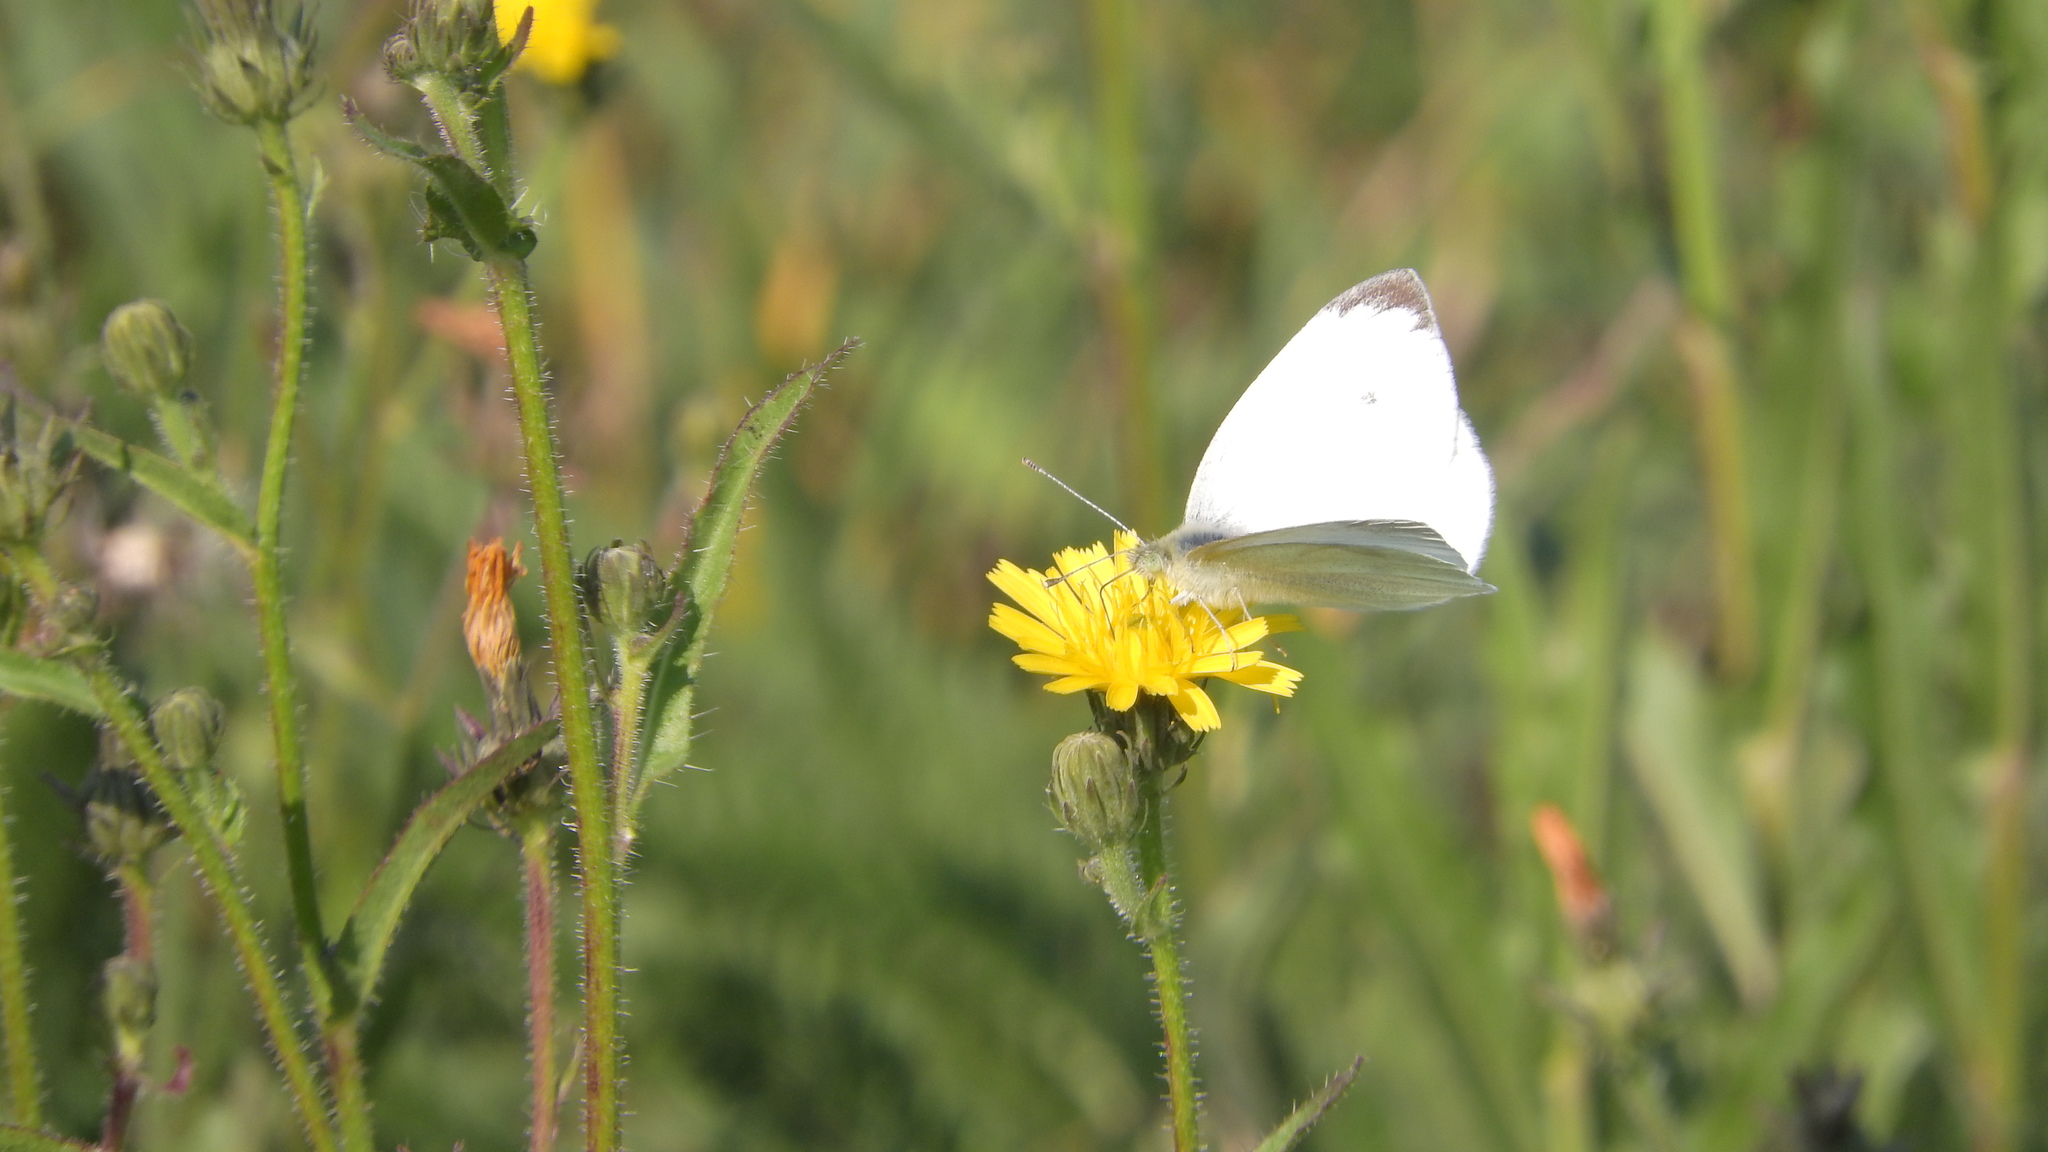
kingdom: Animalia
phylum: Arthropoda
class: Insecta
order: Lepidoptera
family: Pieridae
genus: Pieris
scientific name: Pieris rapae
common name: Small white
